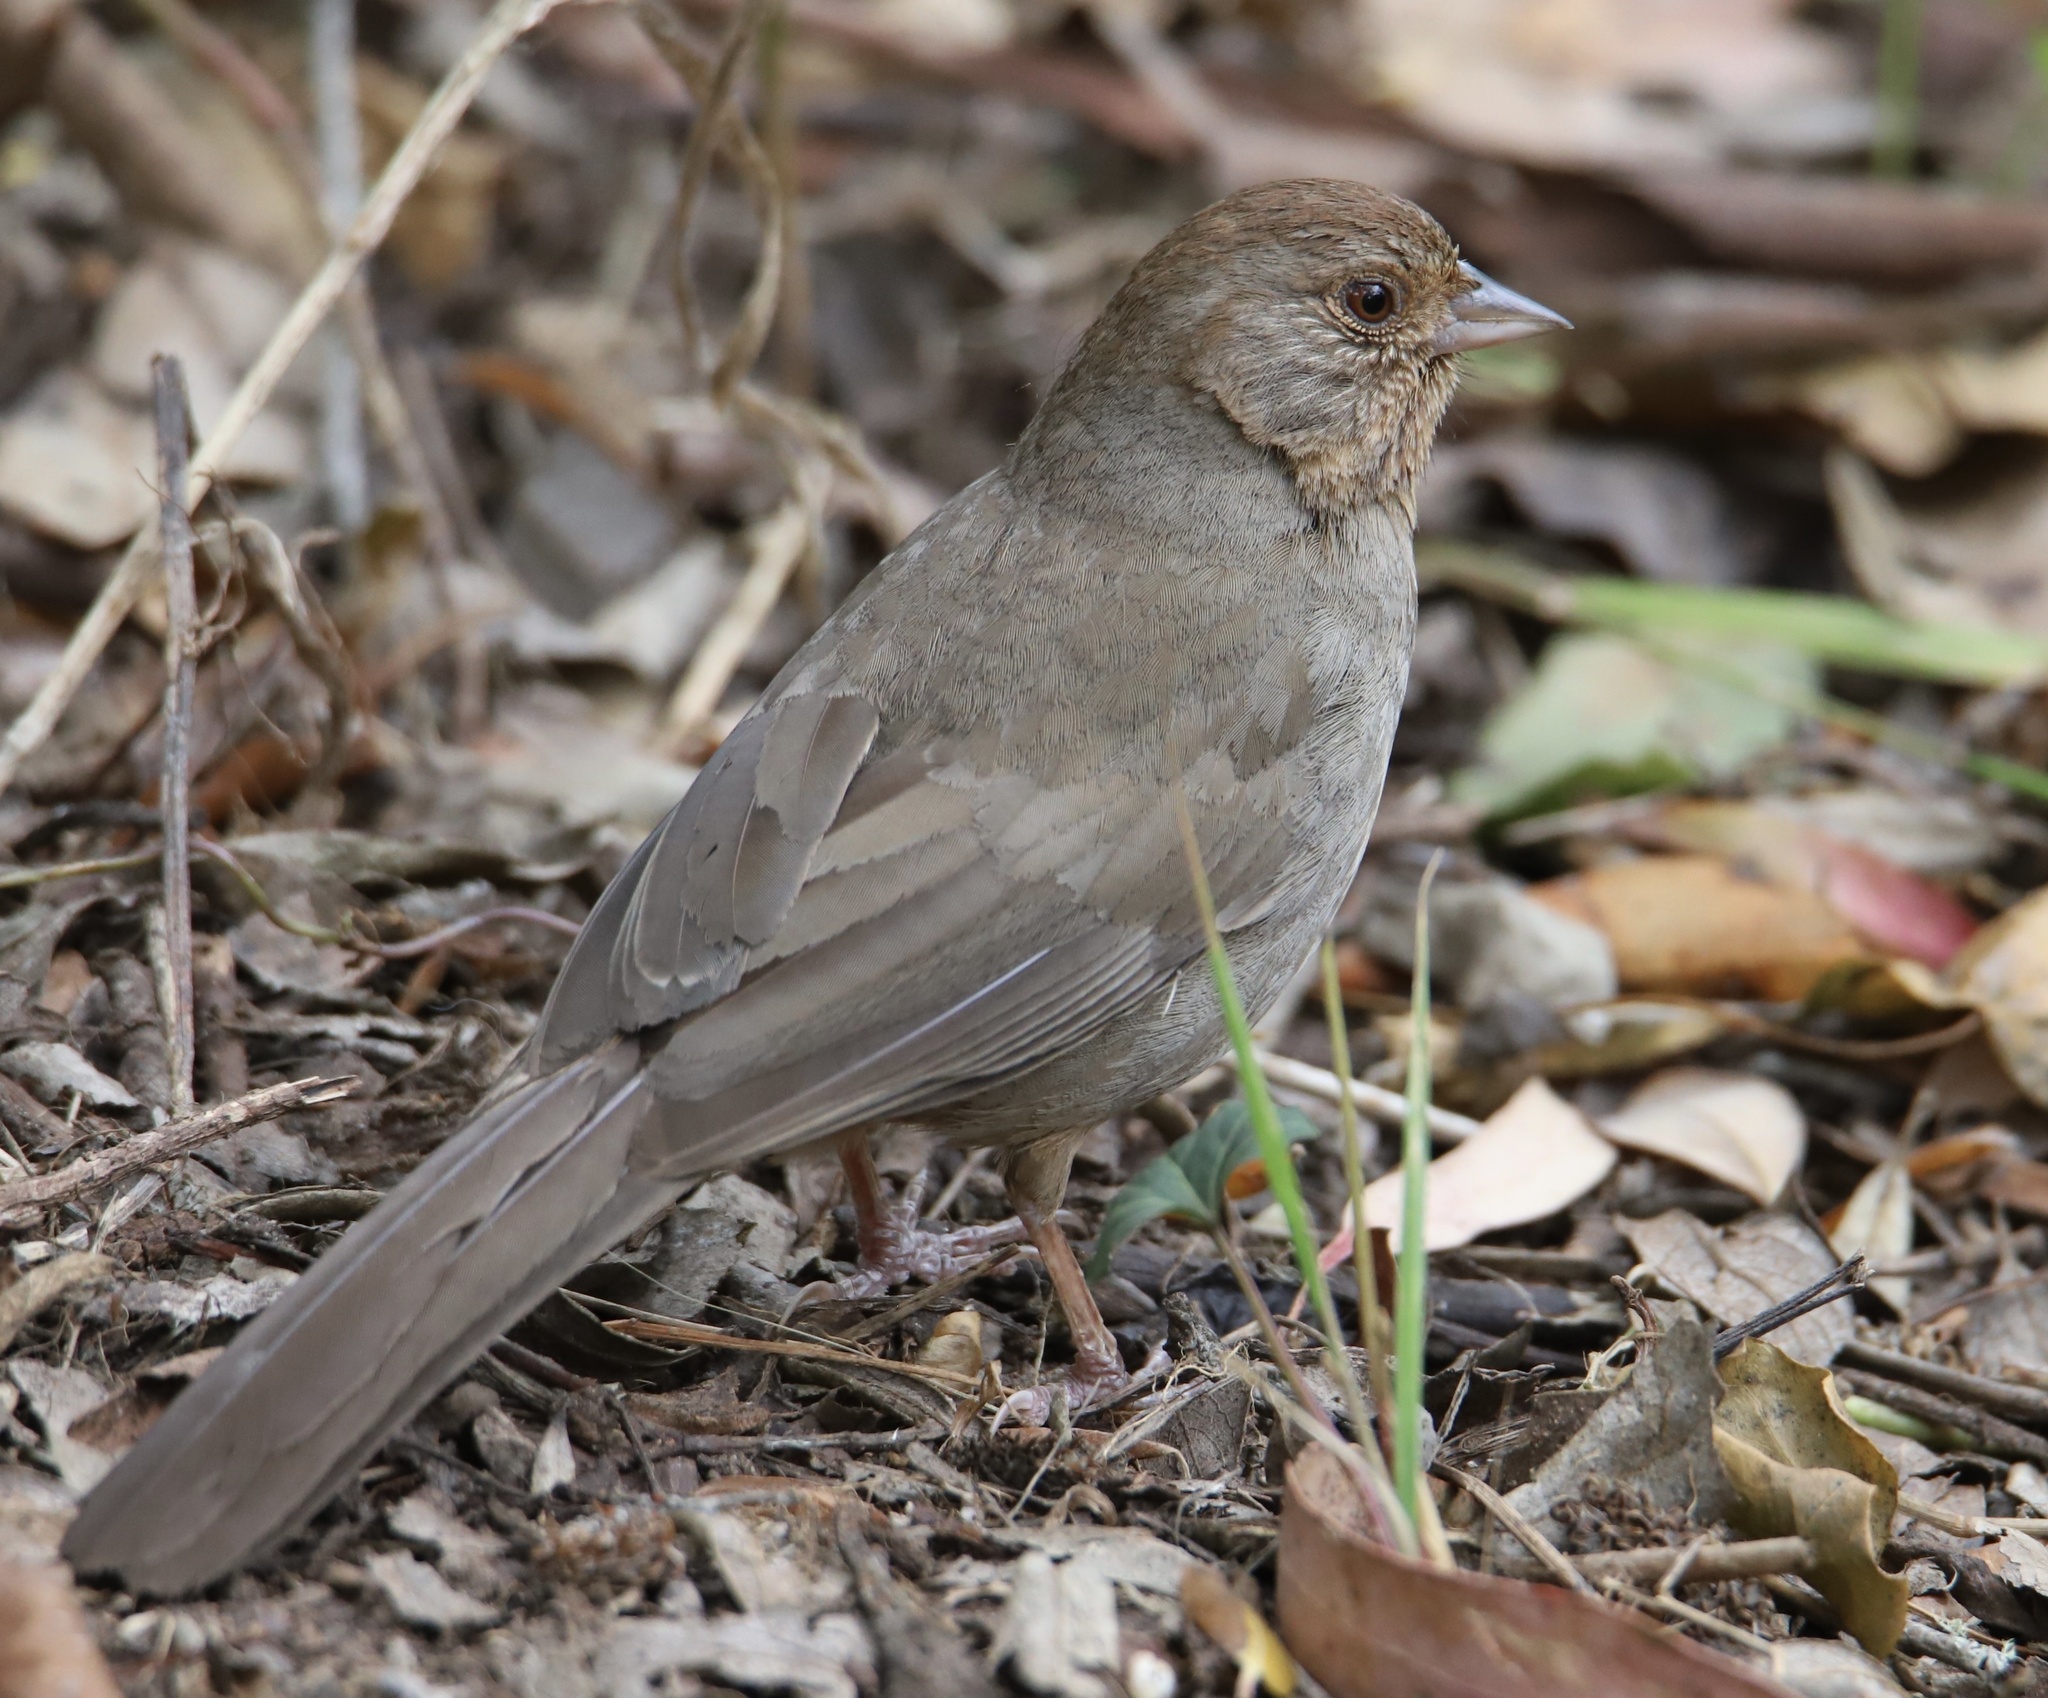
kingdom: Animalia
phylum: Chordata
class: Aves
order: Passeriformes
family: Passerellidae
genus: Melozone
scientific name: Melozone crissalis
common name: California towhee
